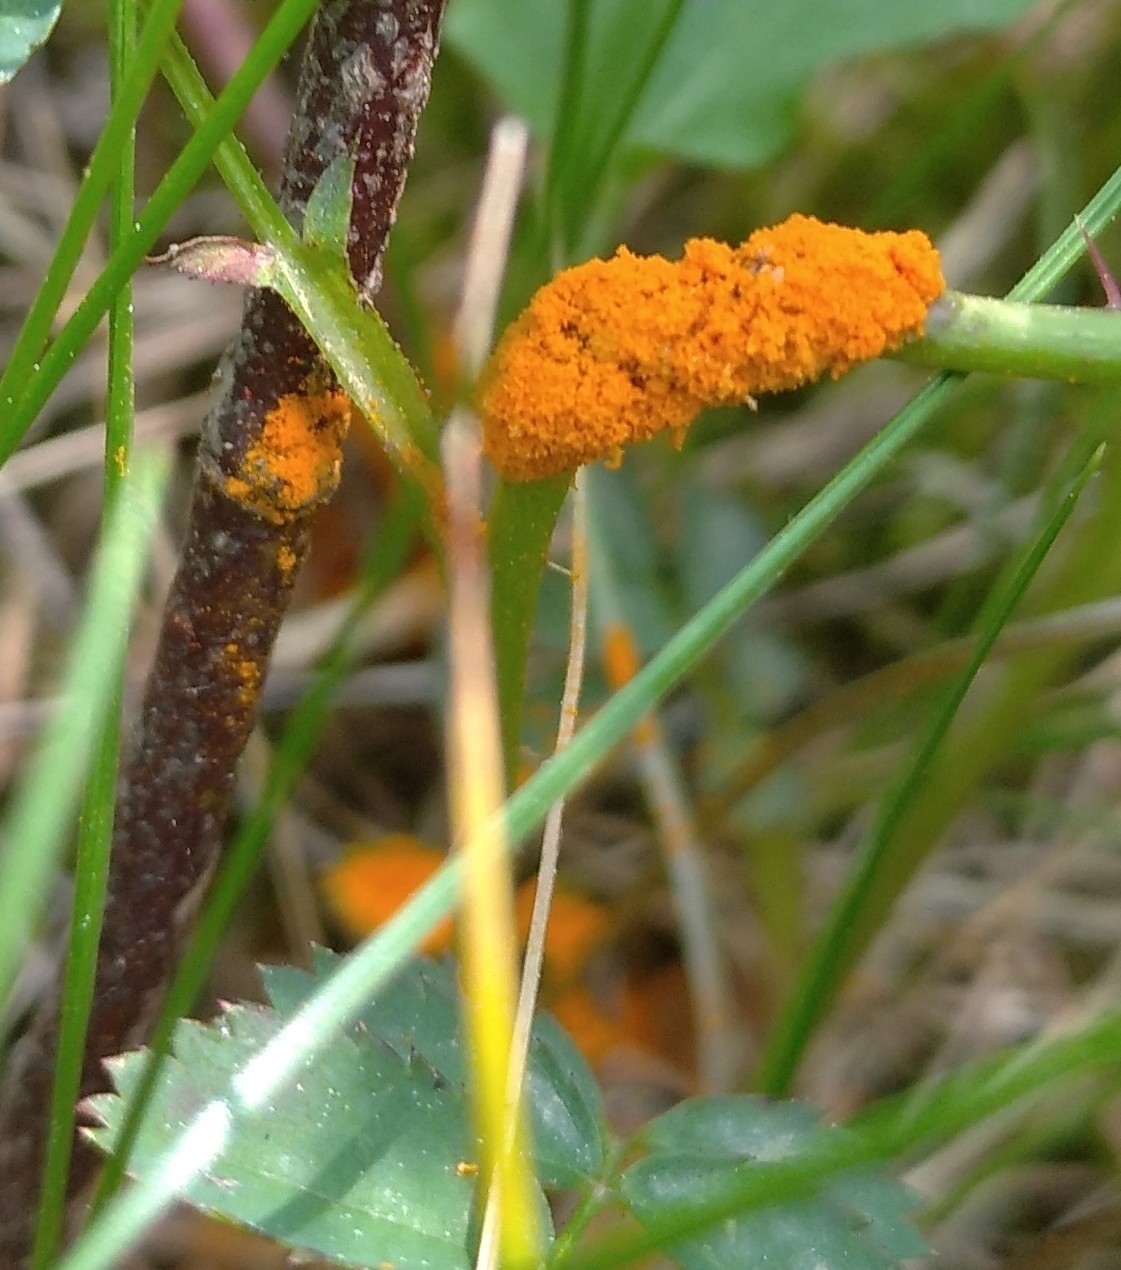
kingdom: Fungi
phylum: Basidiomycota
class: Pucciniomycetes
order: Pucciniales
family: Phragmidiaceae
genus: Phragmidium
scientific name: Phragmidium
